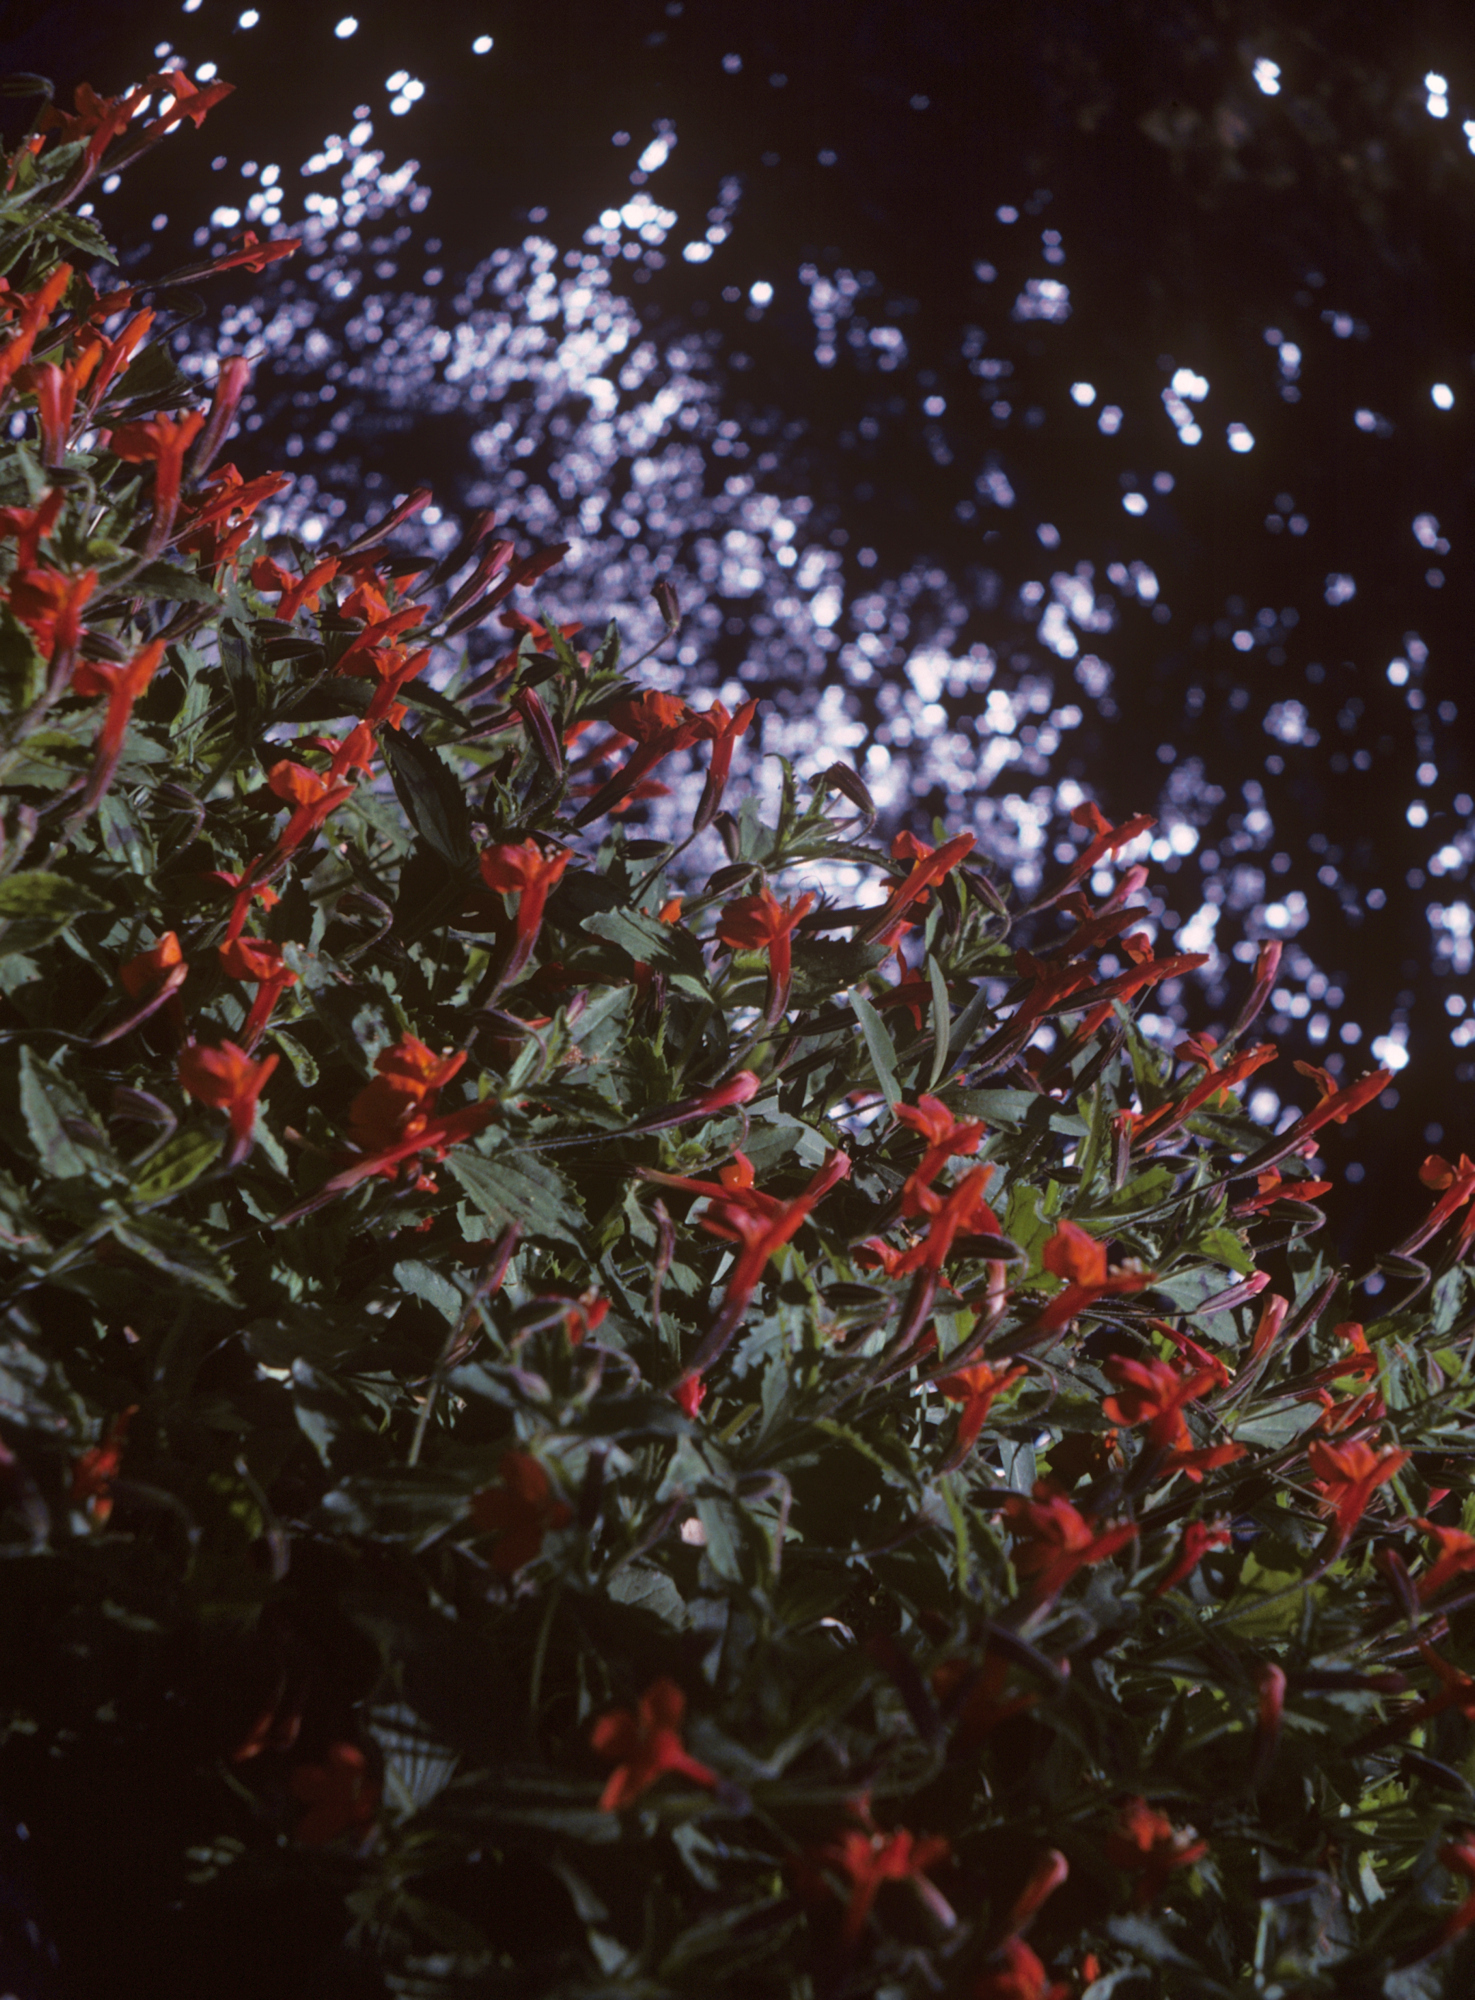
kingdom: Plantae
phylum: Tracheophyta
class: Magnoliopsida
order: Lamiales
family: Phrymaceae
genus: Erythranthe
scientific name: Erythranthe verbenacea
